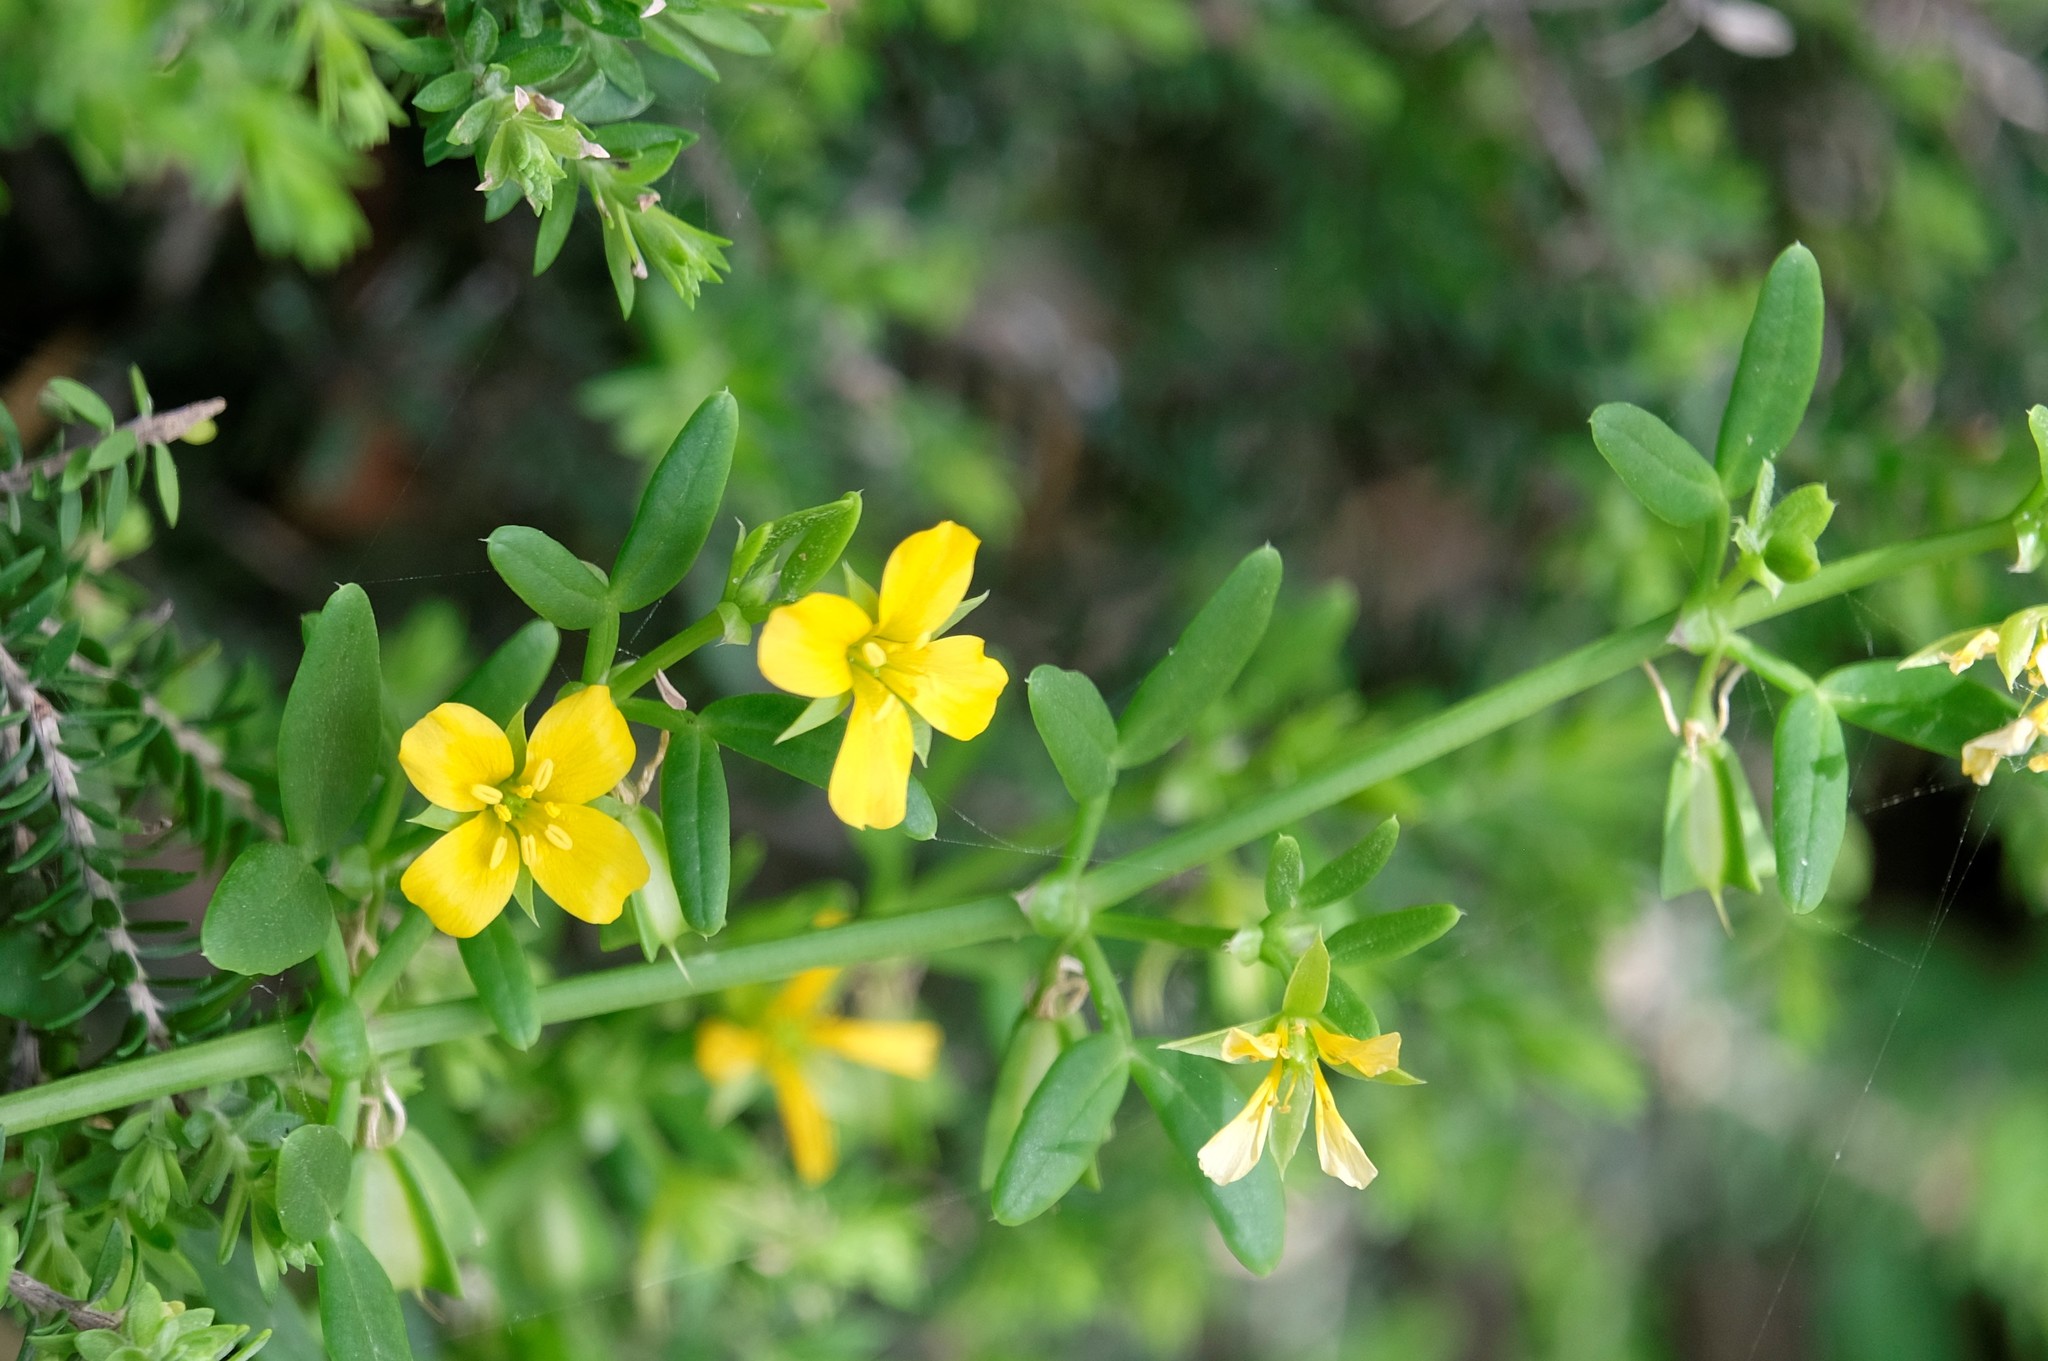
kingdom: Plantae
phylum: Tracheophyta
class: Magnoliopsida
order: Zygophyllales
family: Zygophyllaceae
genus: Roepera
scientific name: Roepera billardieri
